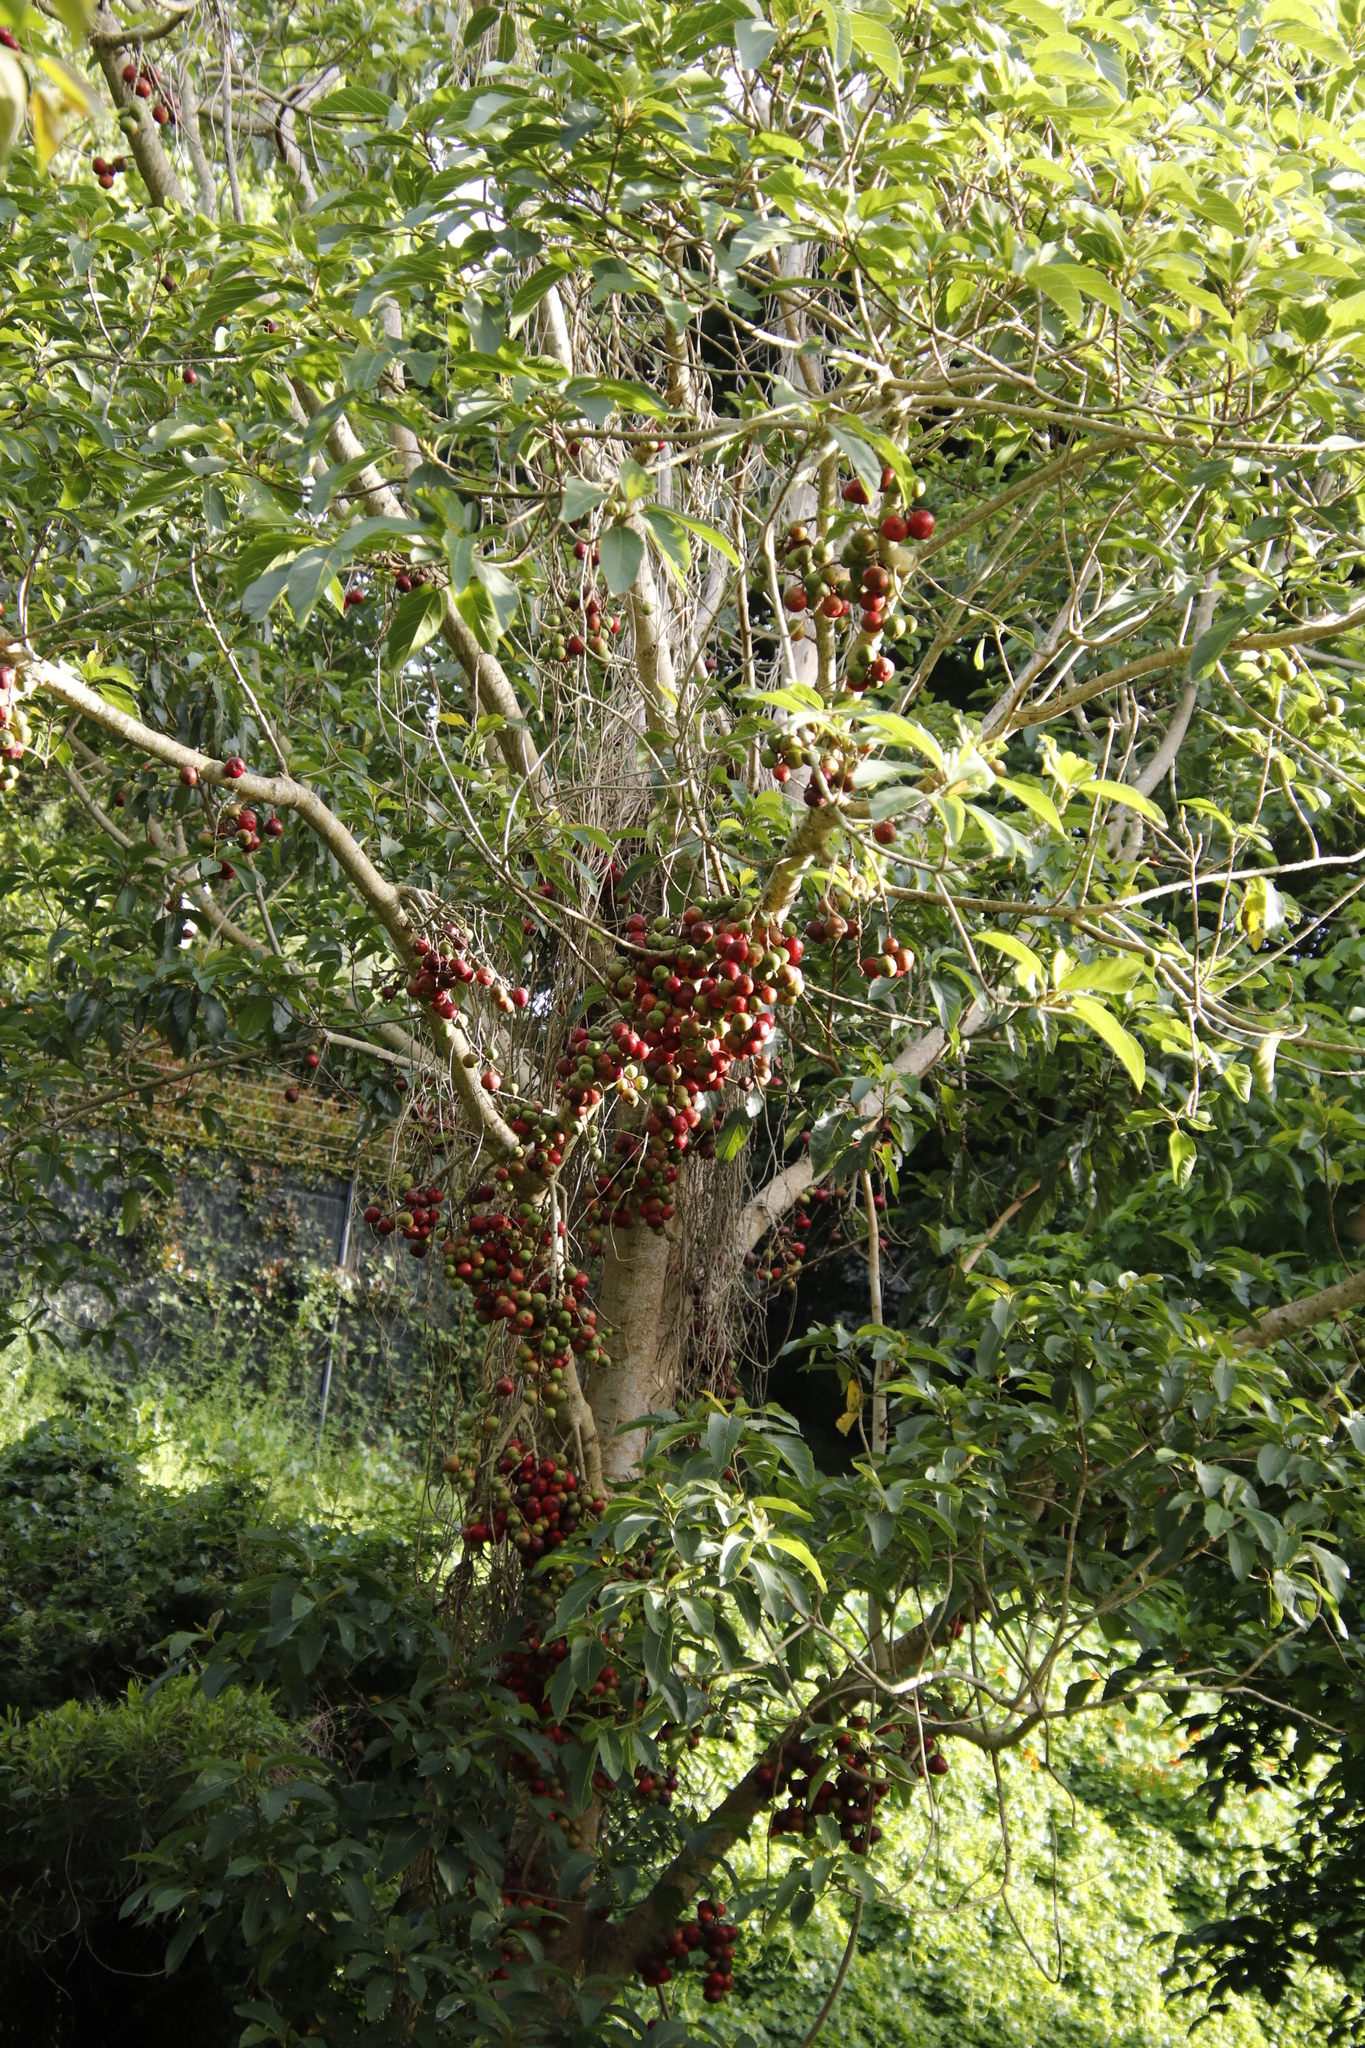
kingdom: Plantae
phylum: Tracheophyta
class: Magnoliopsida
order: Rosales
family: Moraceae
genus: Ficus
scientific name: Ficus sur
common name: Cape fig
